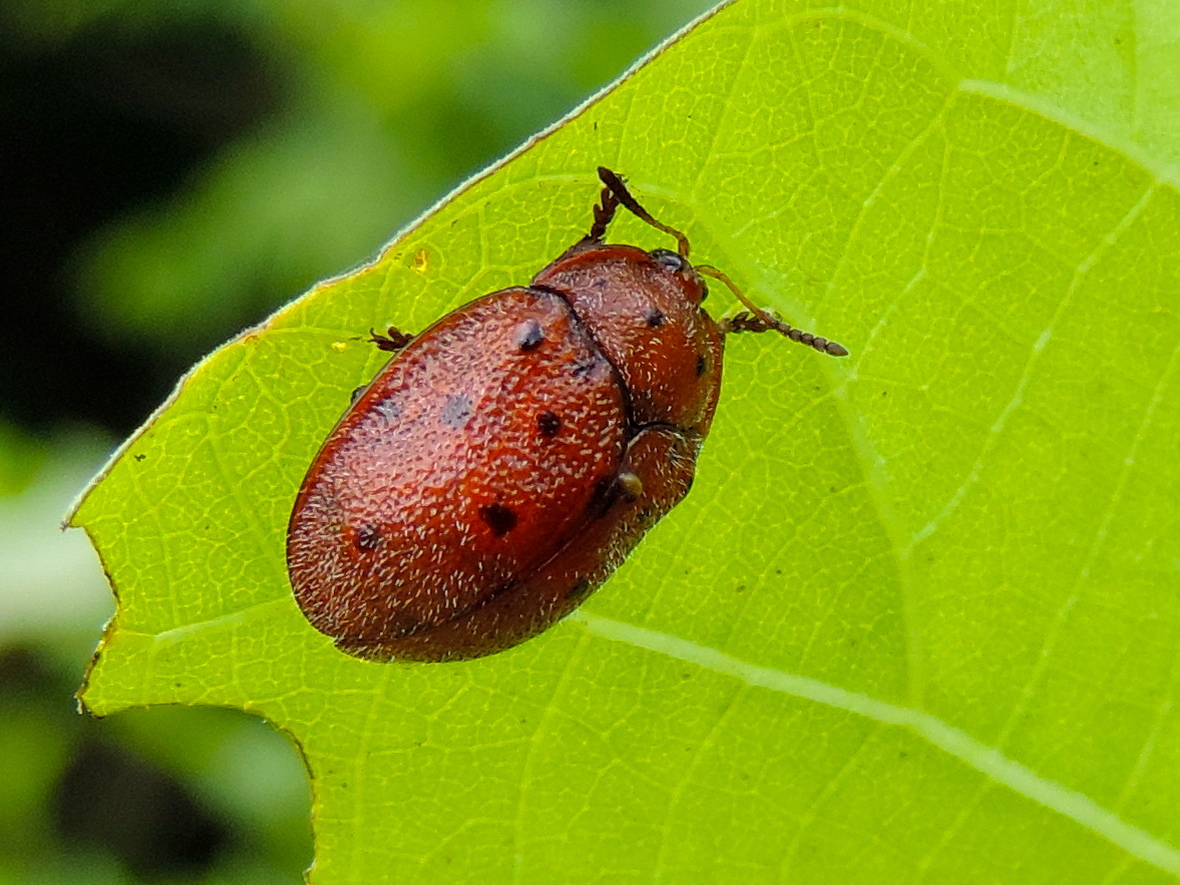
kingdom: Animalia
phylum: Arthropoda
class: Insecta
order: Coleoptera
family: Chrysomelidae
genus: Chelymorpha
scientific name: Chelymorpha
